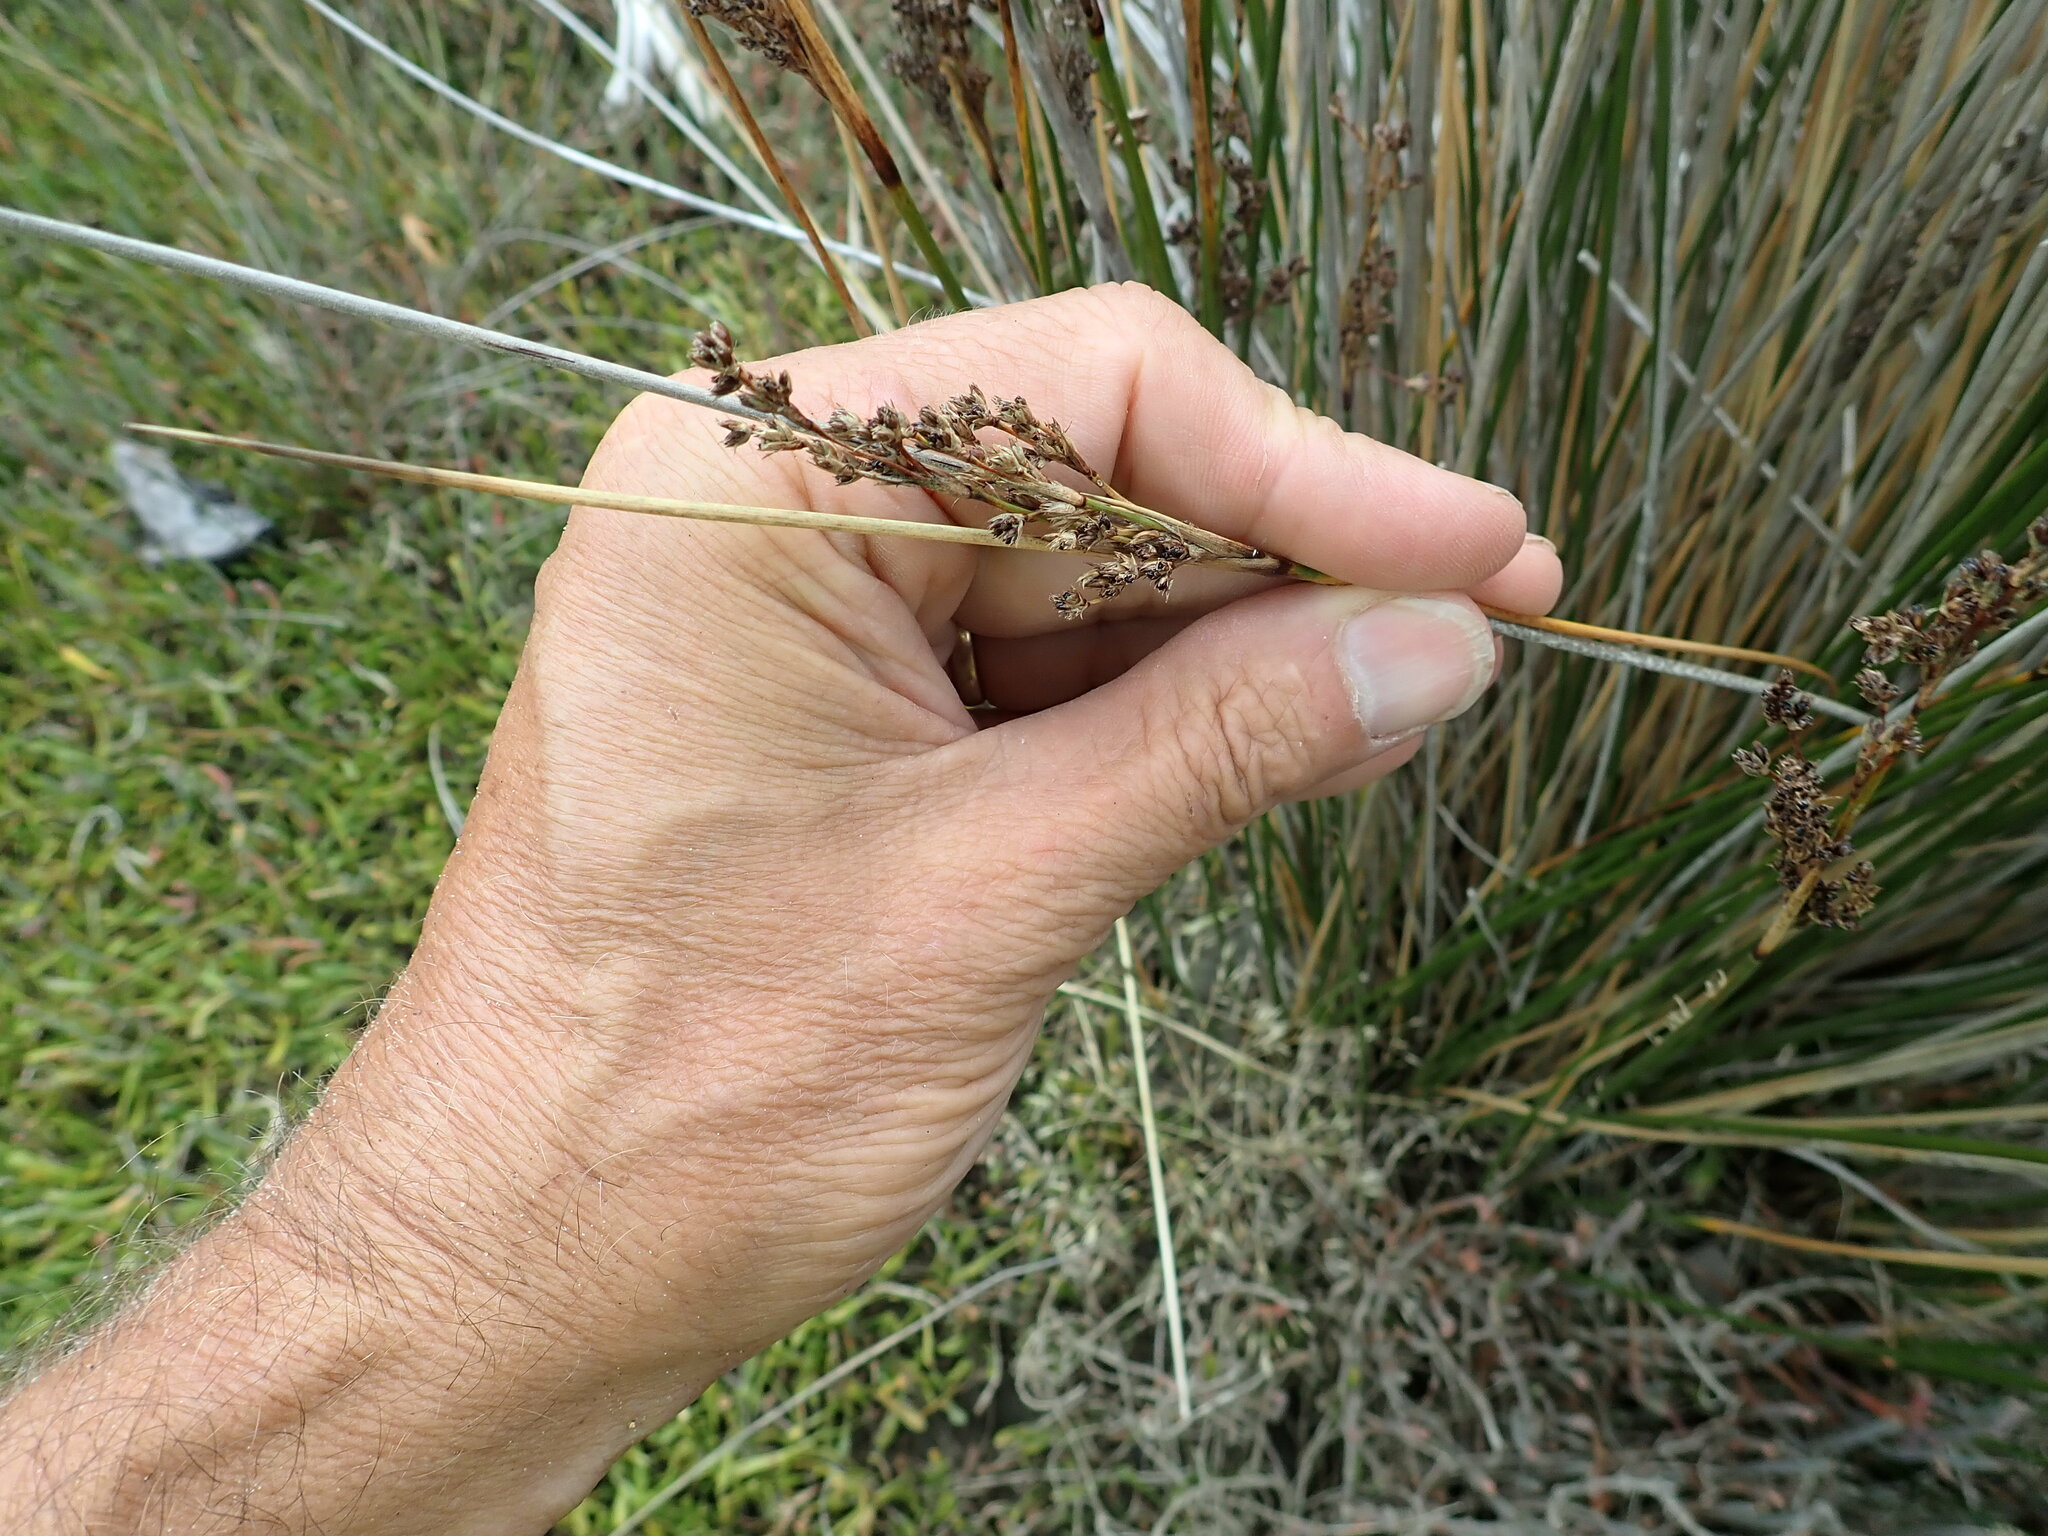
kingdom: Plantae
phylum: Tracheophyta
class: Liliopsida
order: Poales
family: Juncaceae
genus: Juncus
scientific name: Juncus kraussii
